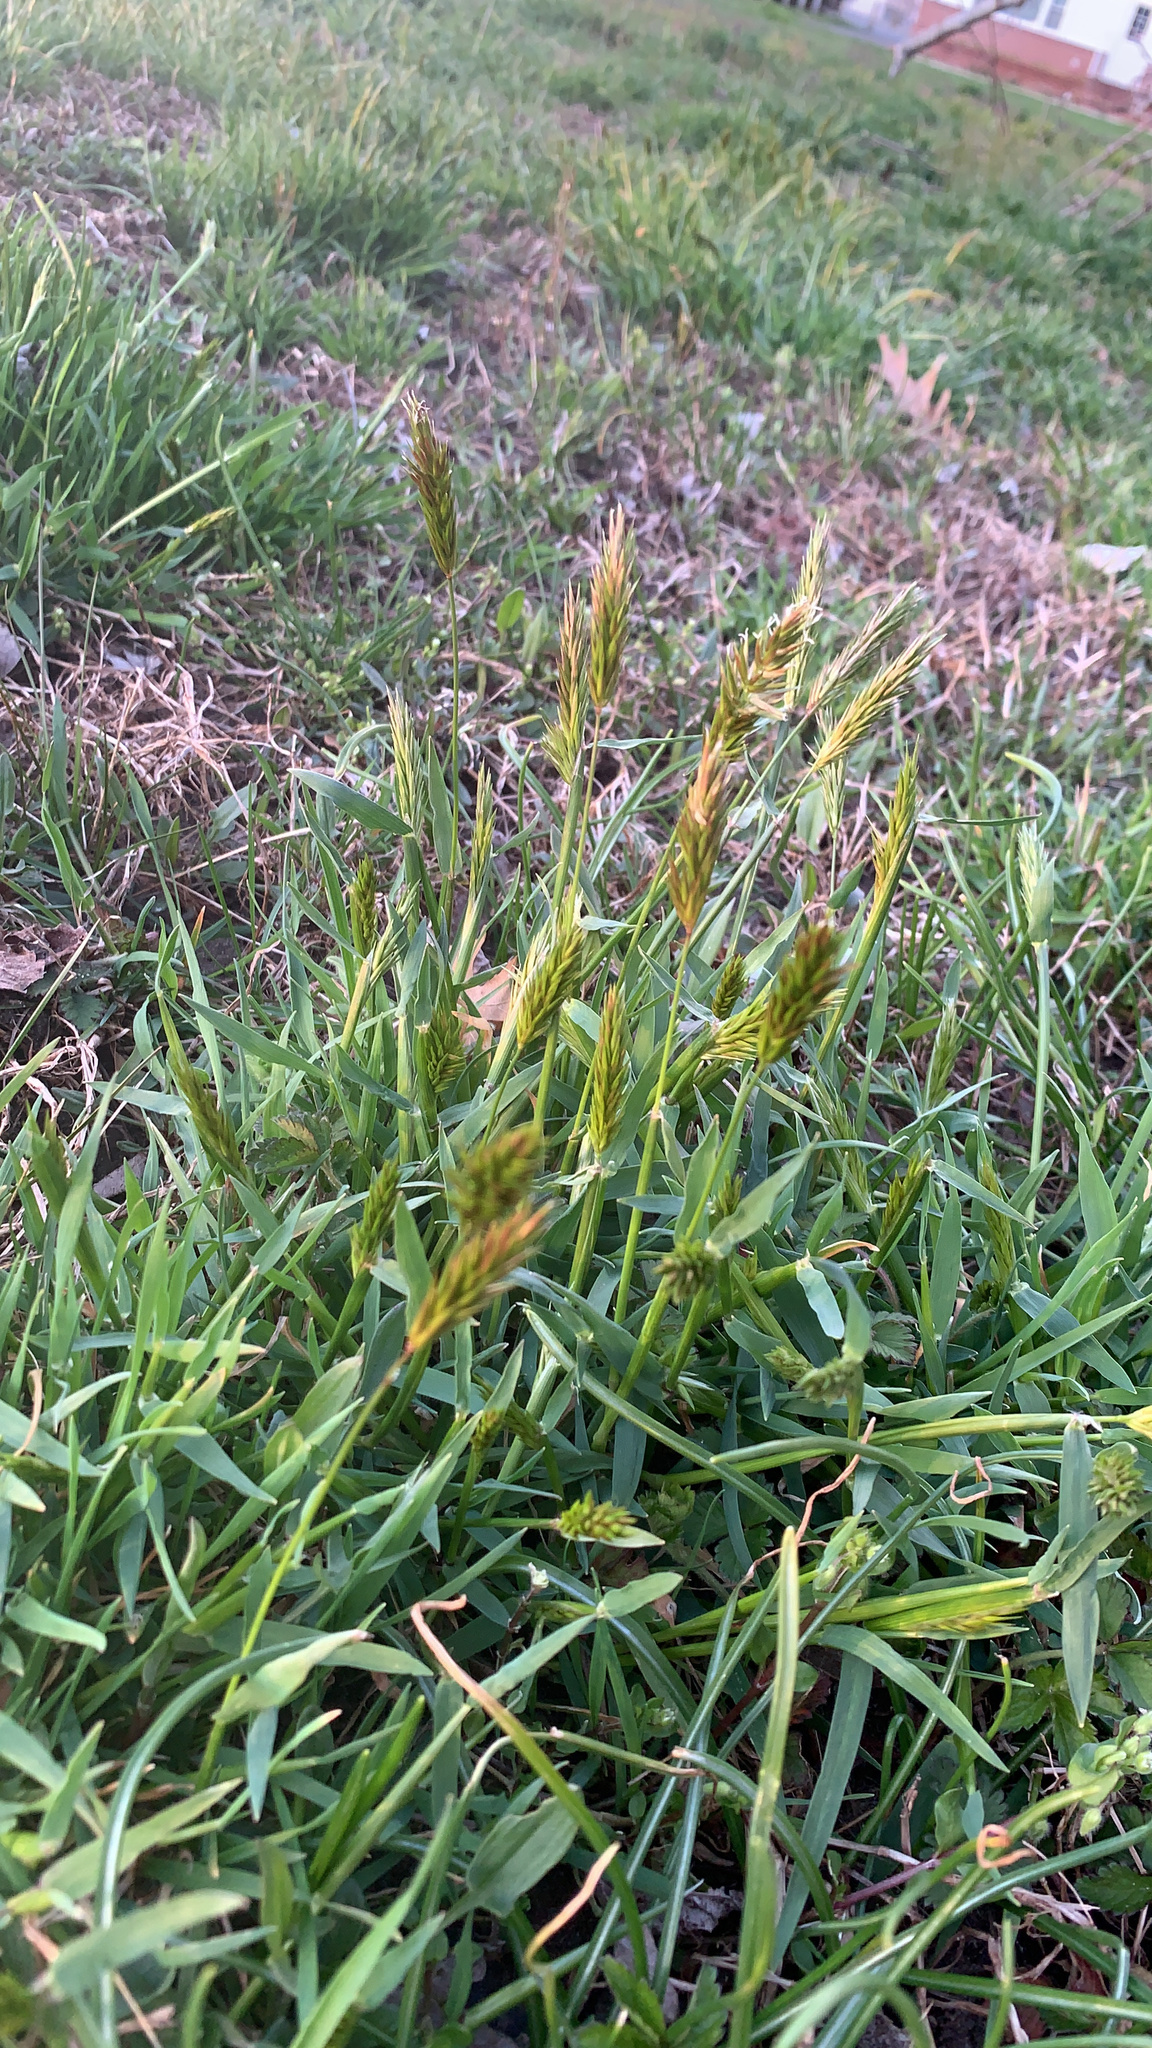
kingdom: Plantae
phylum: Tracheophyta
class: Liliopsida
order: Poales
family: Poaceae
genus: Anthoxanthum
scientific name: Anthoxanthum odoratum
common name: Sweet vernalgrass
